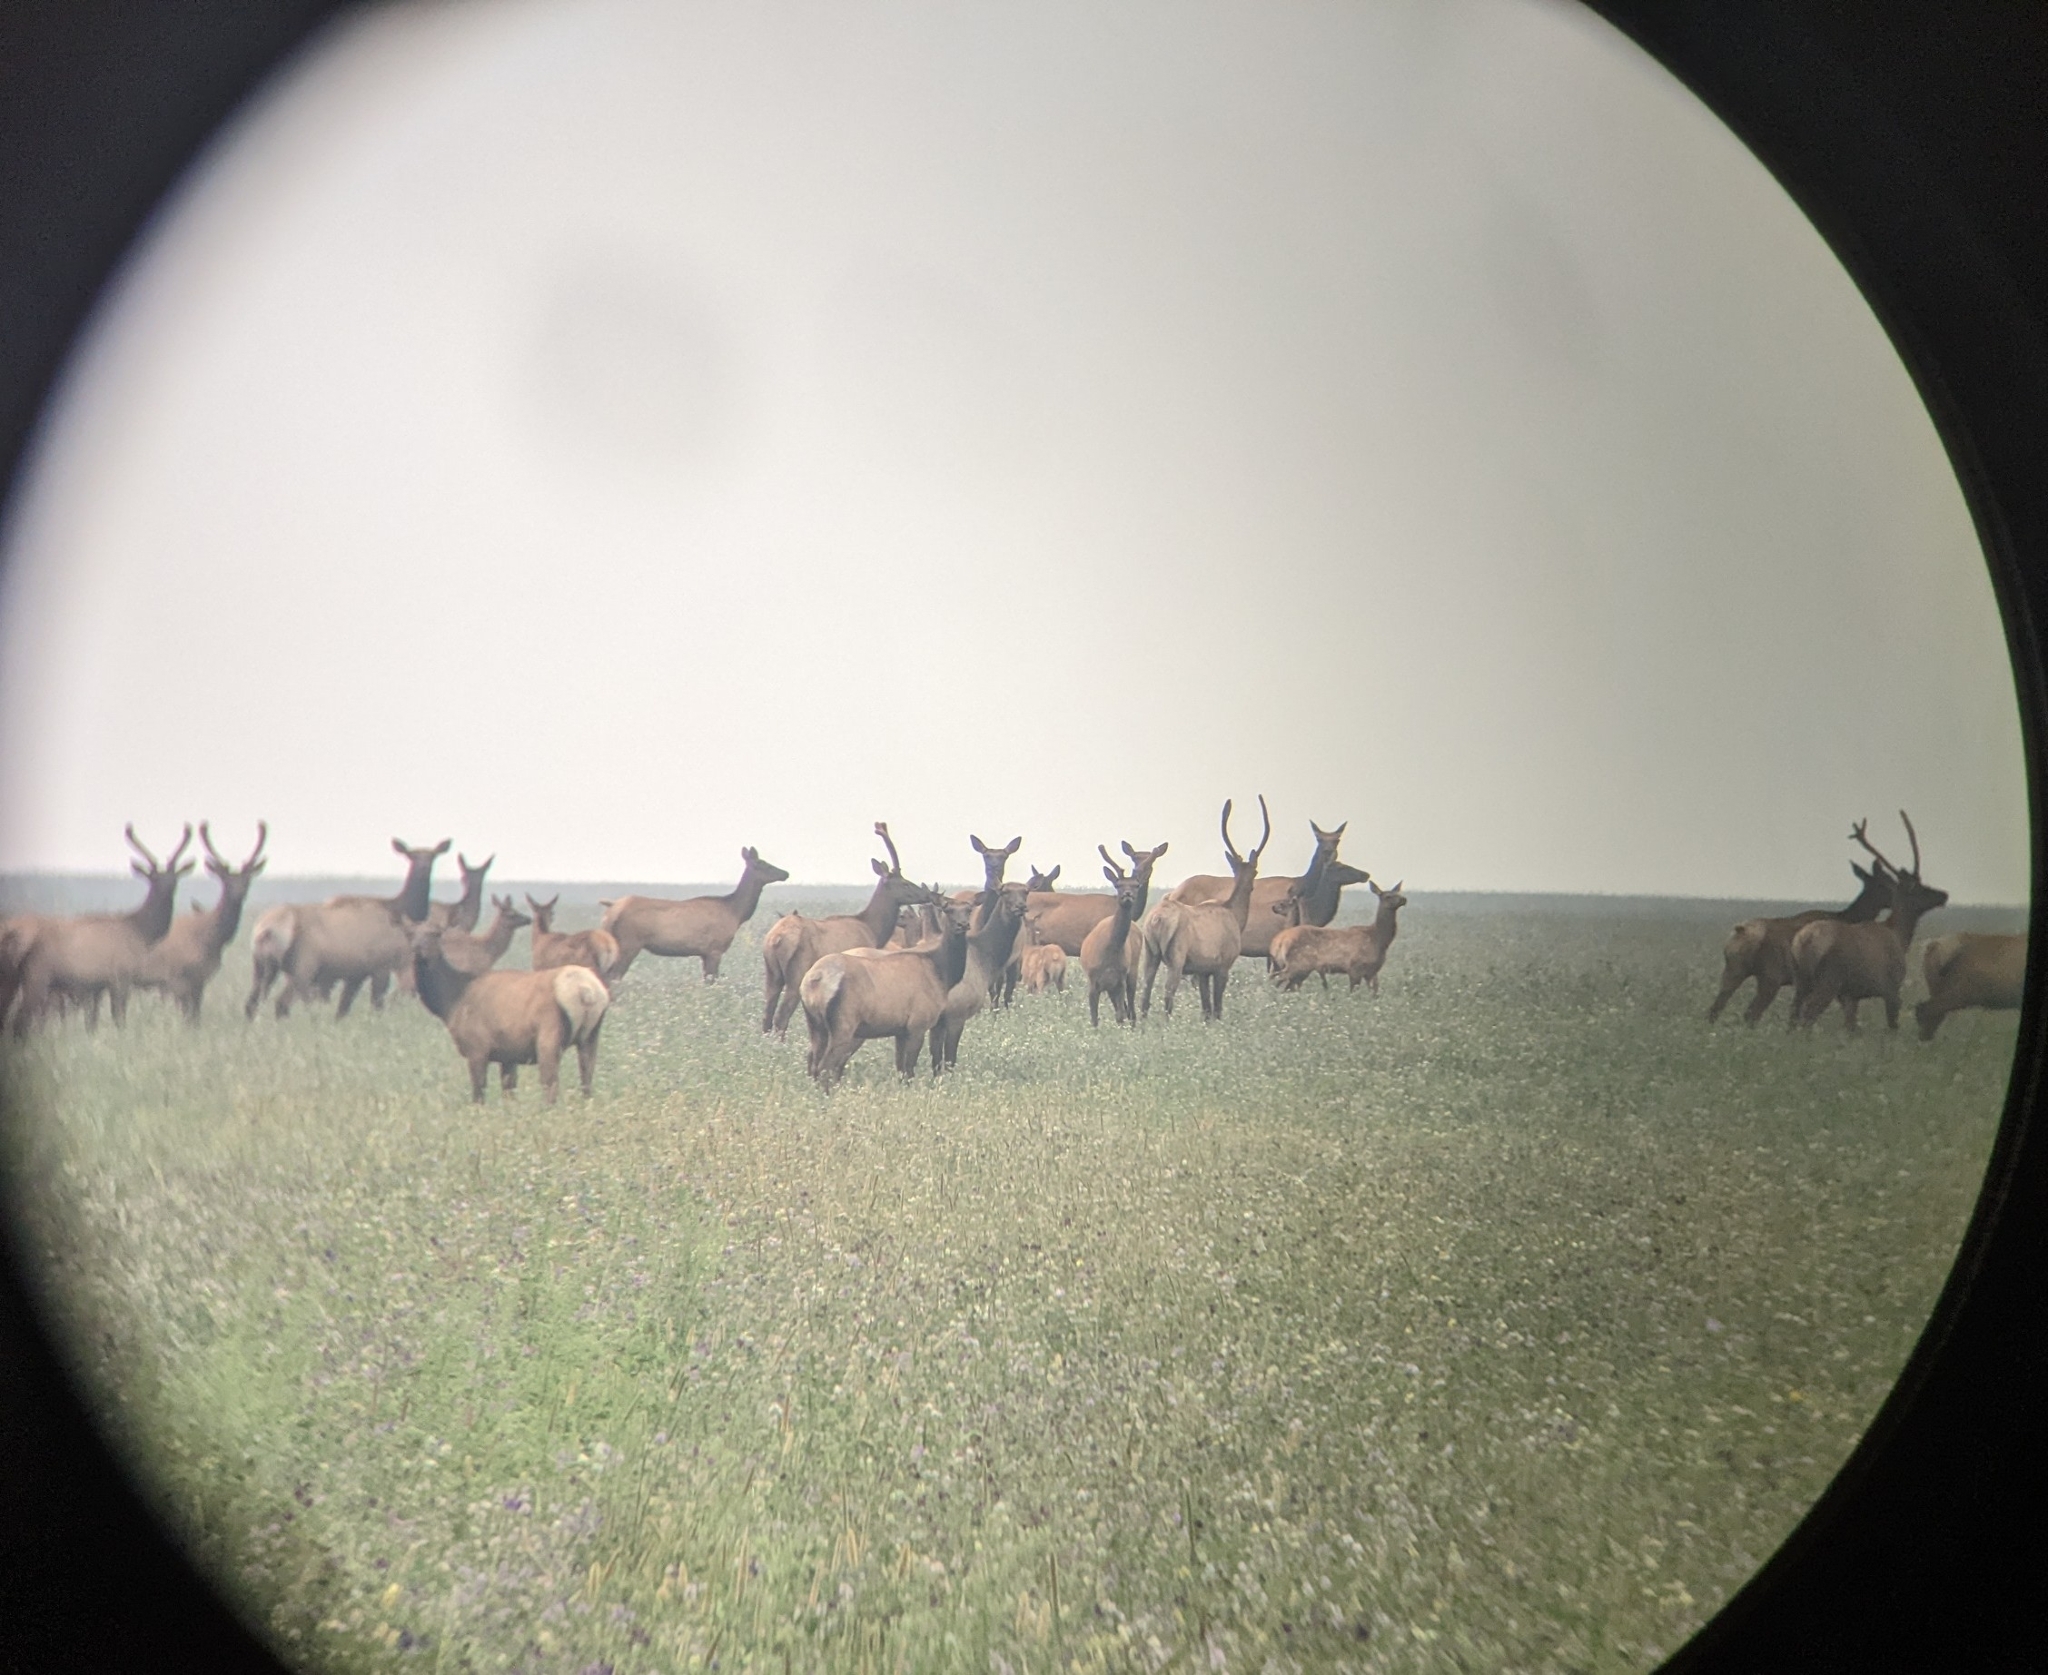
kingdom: Animalia
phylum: Chordata
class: Mammalia
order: Artiodactyla
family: Cervidae
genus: Cervus
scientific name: Cervus elaphus
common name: Red deer
